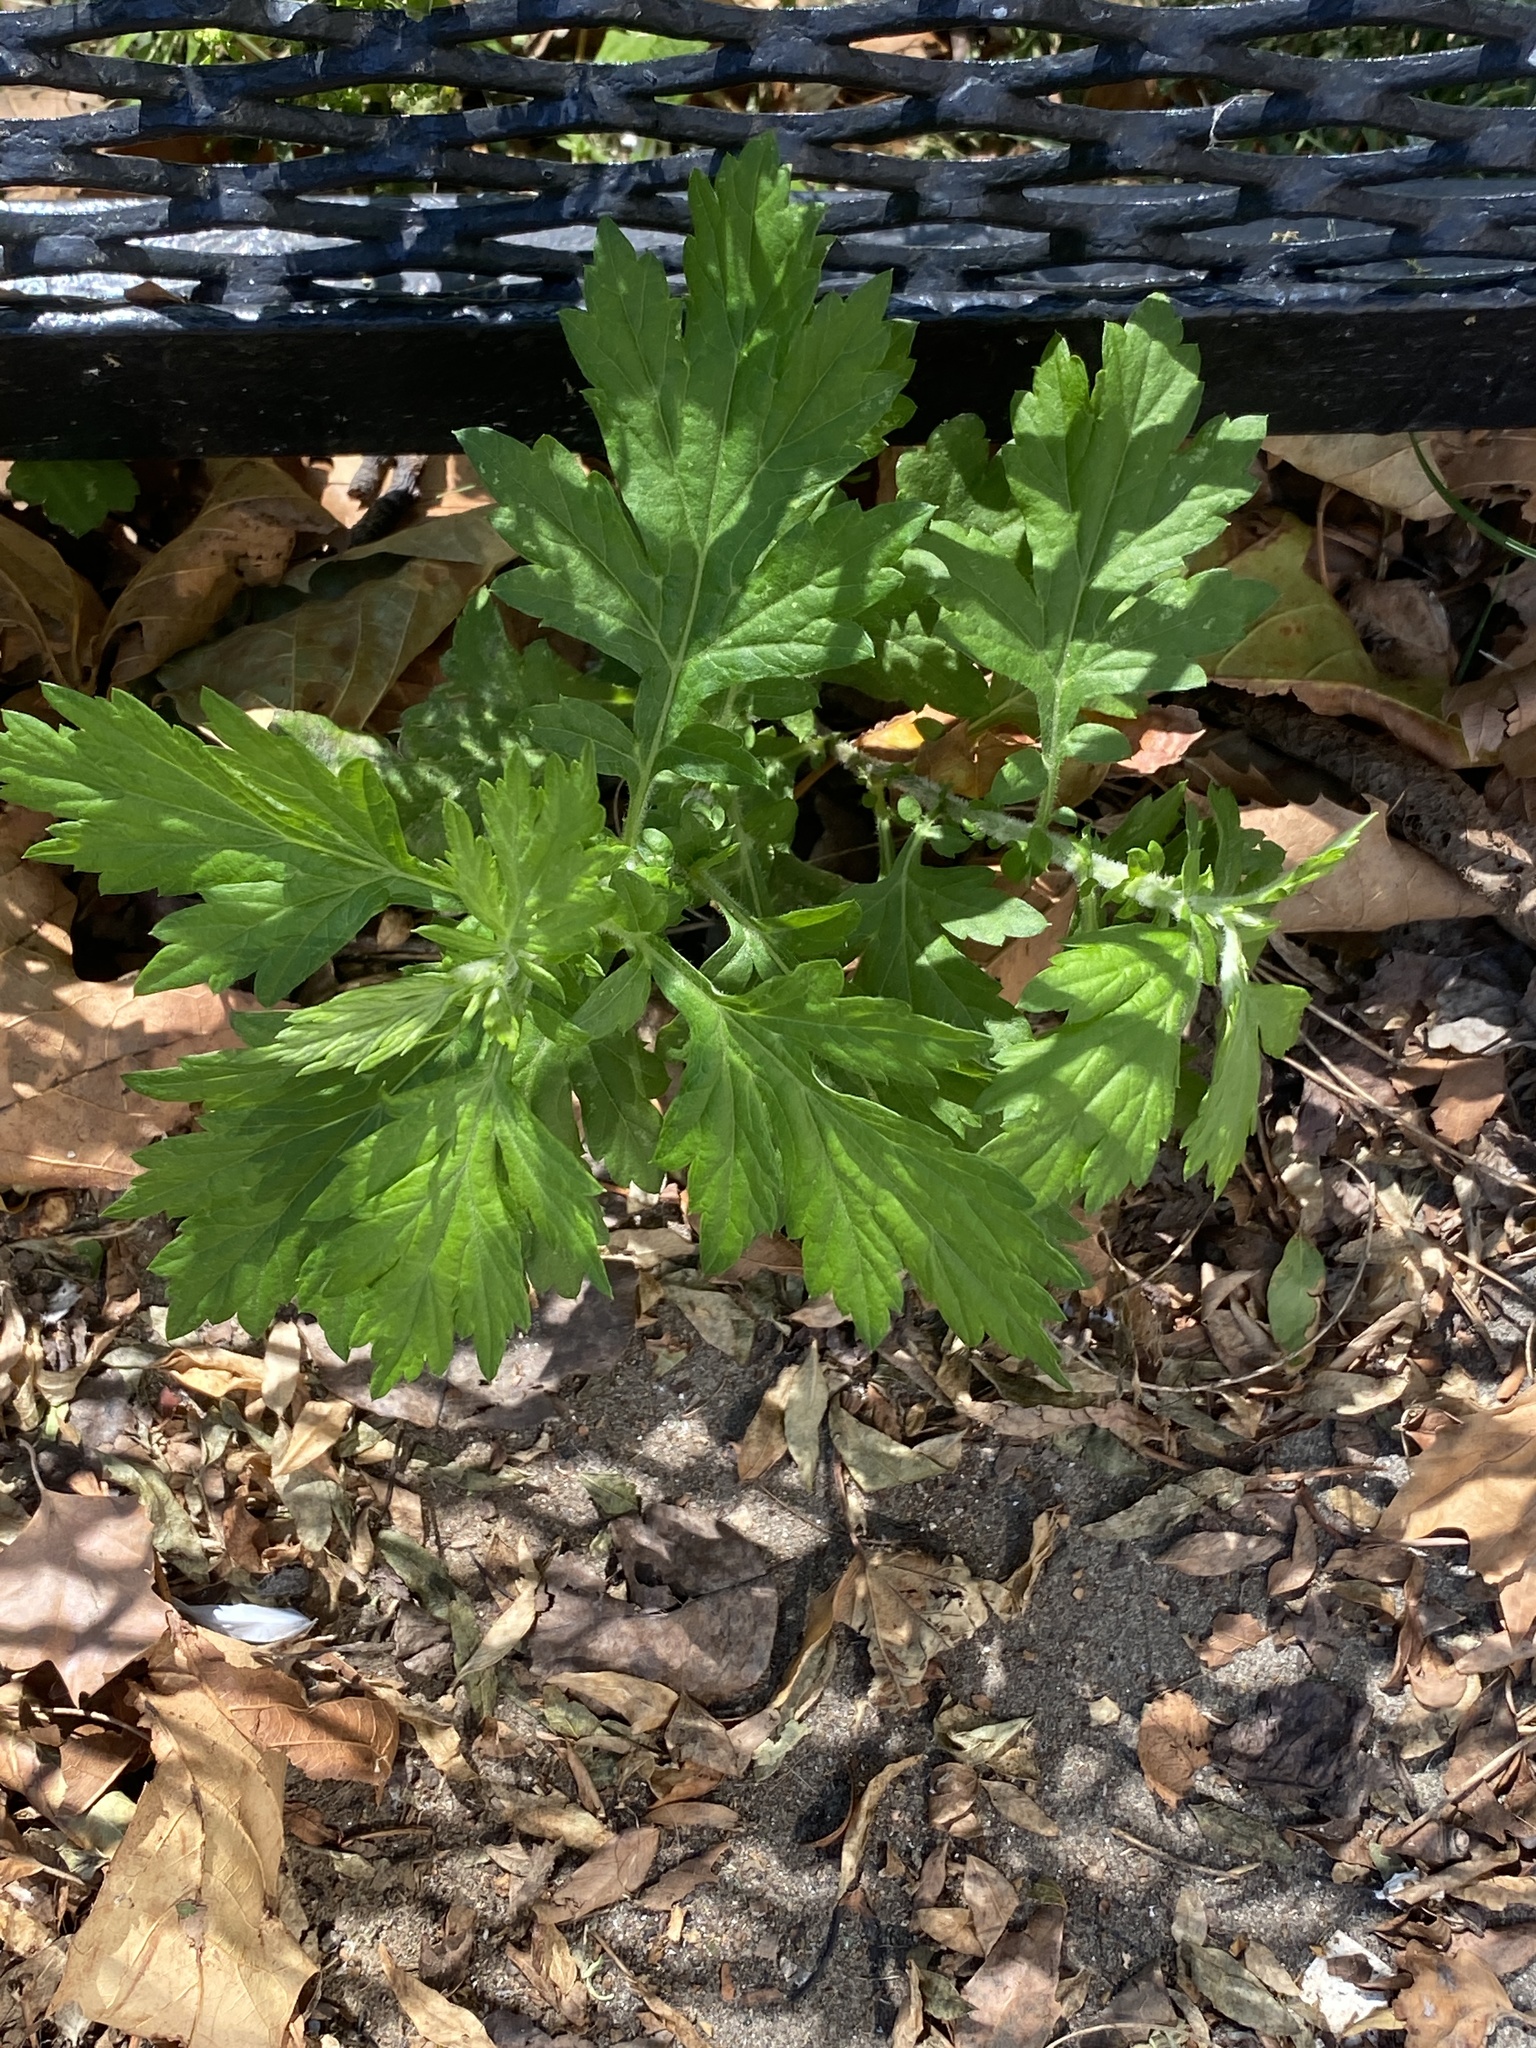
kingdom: Plantae
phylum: Tracheophyta
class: Magnoliopsida
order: Asterales
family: Asteraceae
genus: Artemisia
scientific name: Artemisia vulgaris
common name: Mugwort
